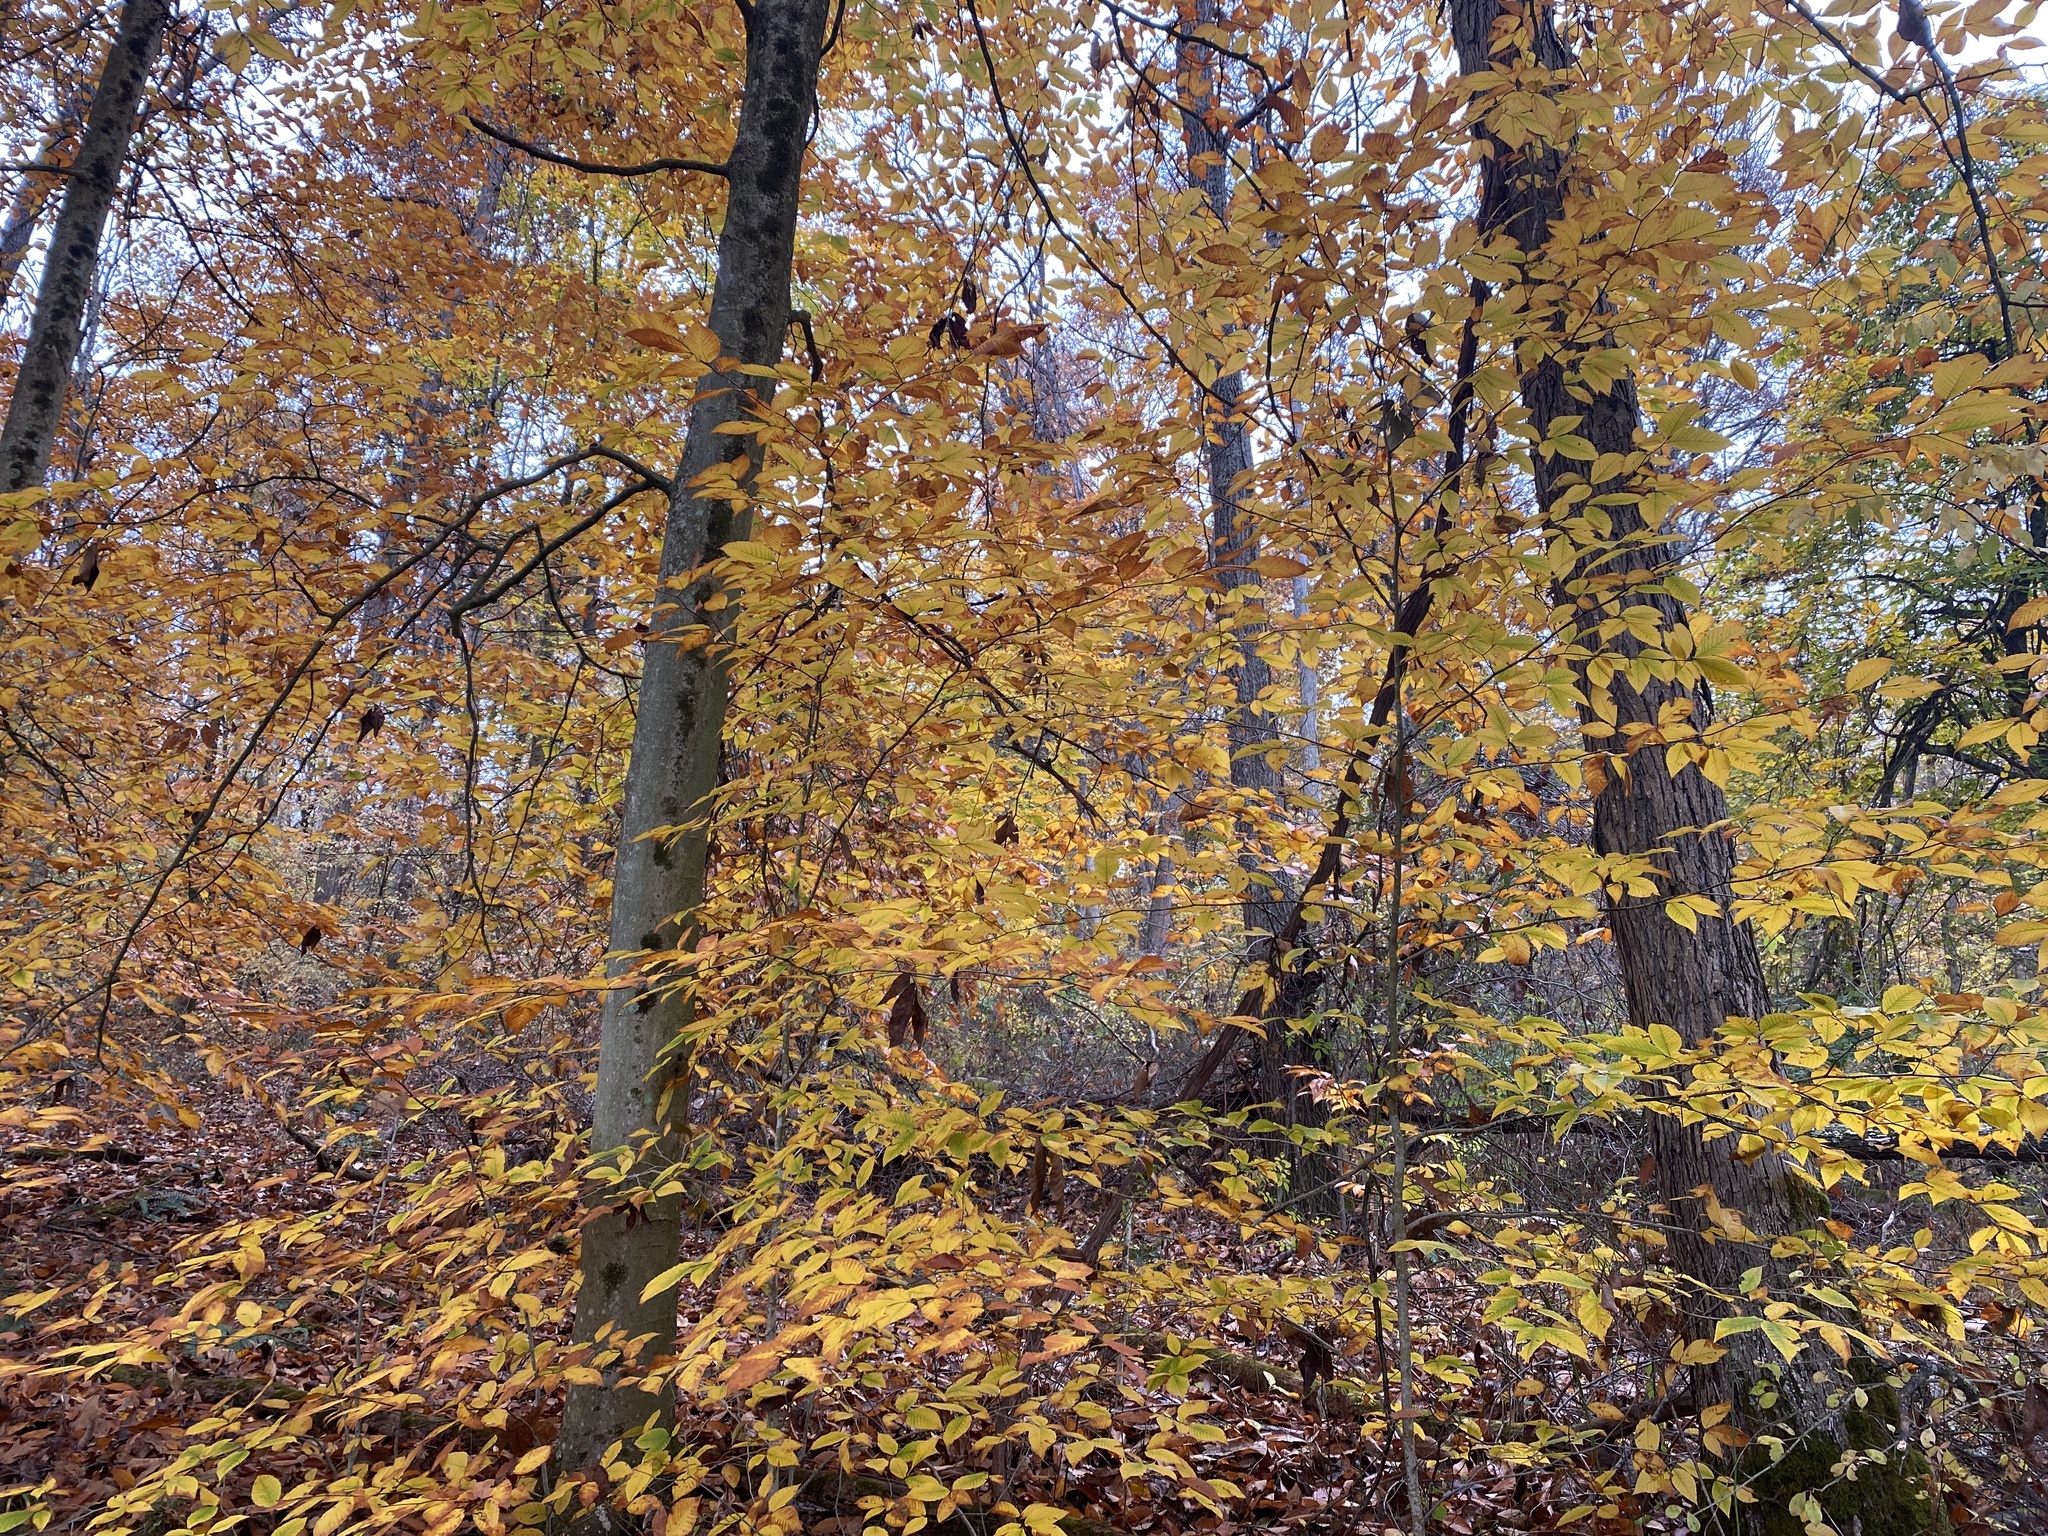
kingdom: Plantae
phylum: Tracheophyta
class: Magnoliopsida
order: Fagales
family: Fagaceae
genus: Fagus
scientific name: Fagus grandifolia
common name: American beech
